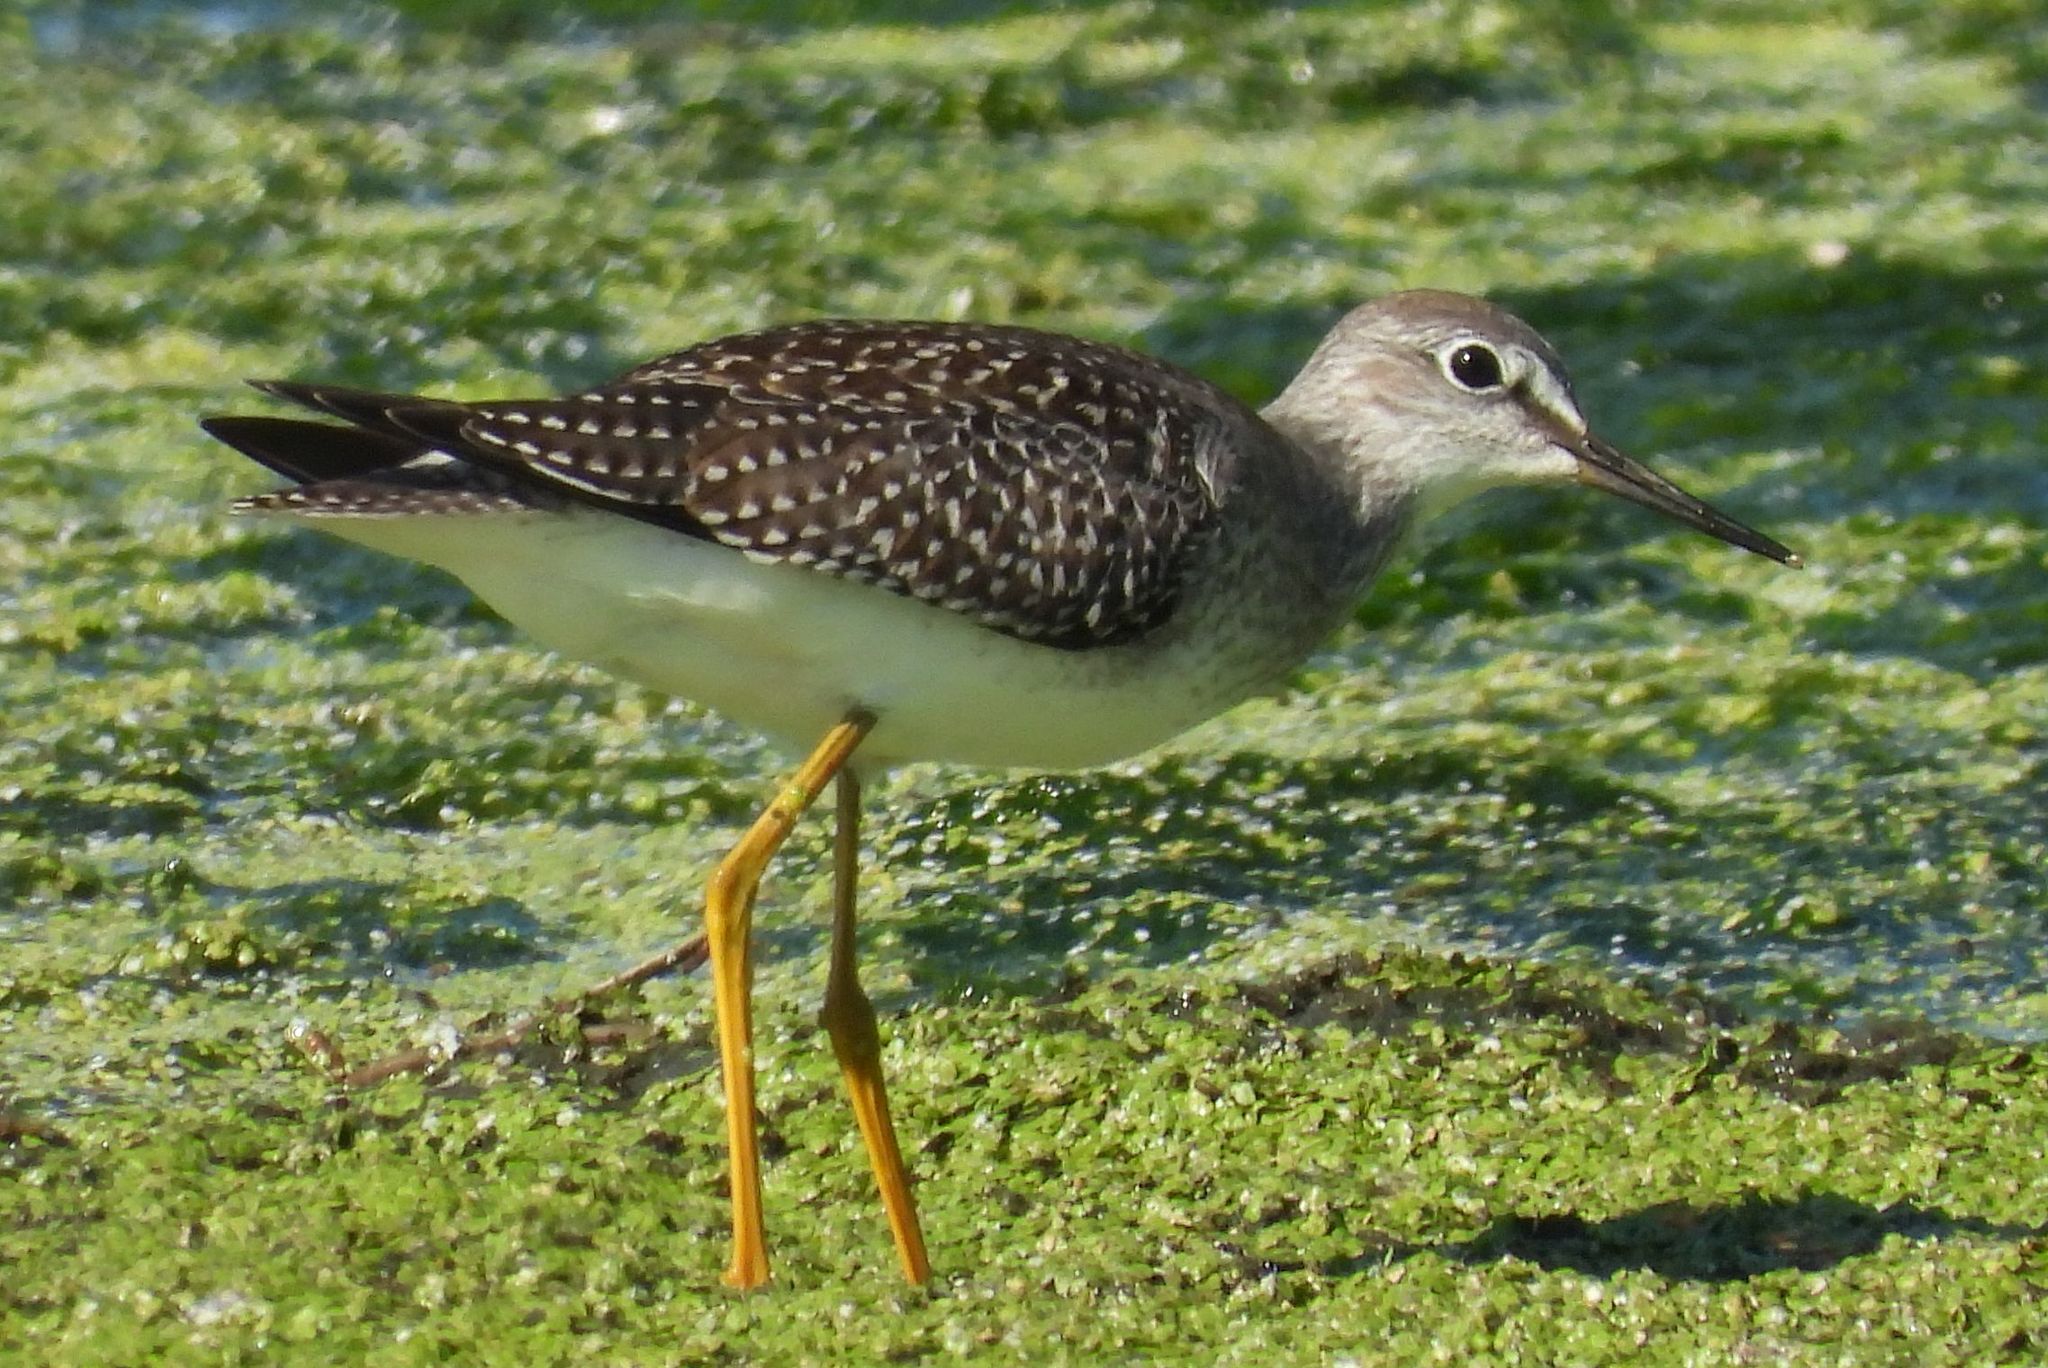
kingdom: Animalia
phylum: Chordata
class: Aves
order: Charadriiformes
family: Scolopacidae
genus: Tringa
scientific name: Tringa flavipes
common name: Lesser yellowlegs
